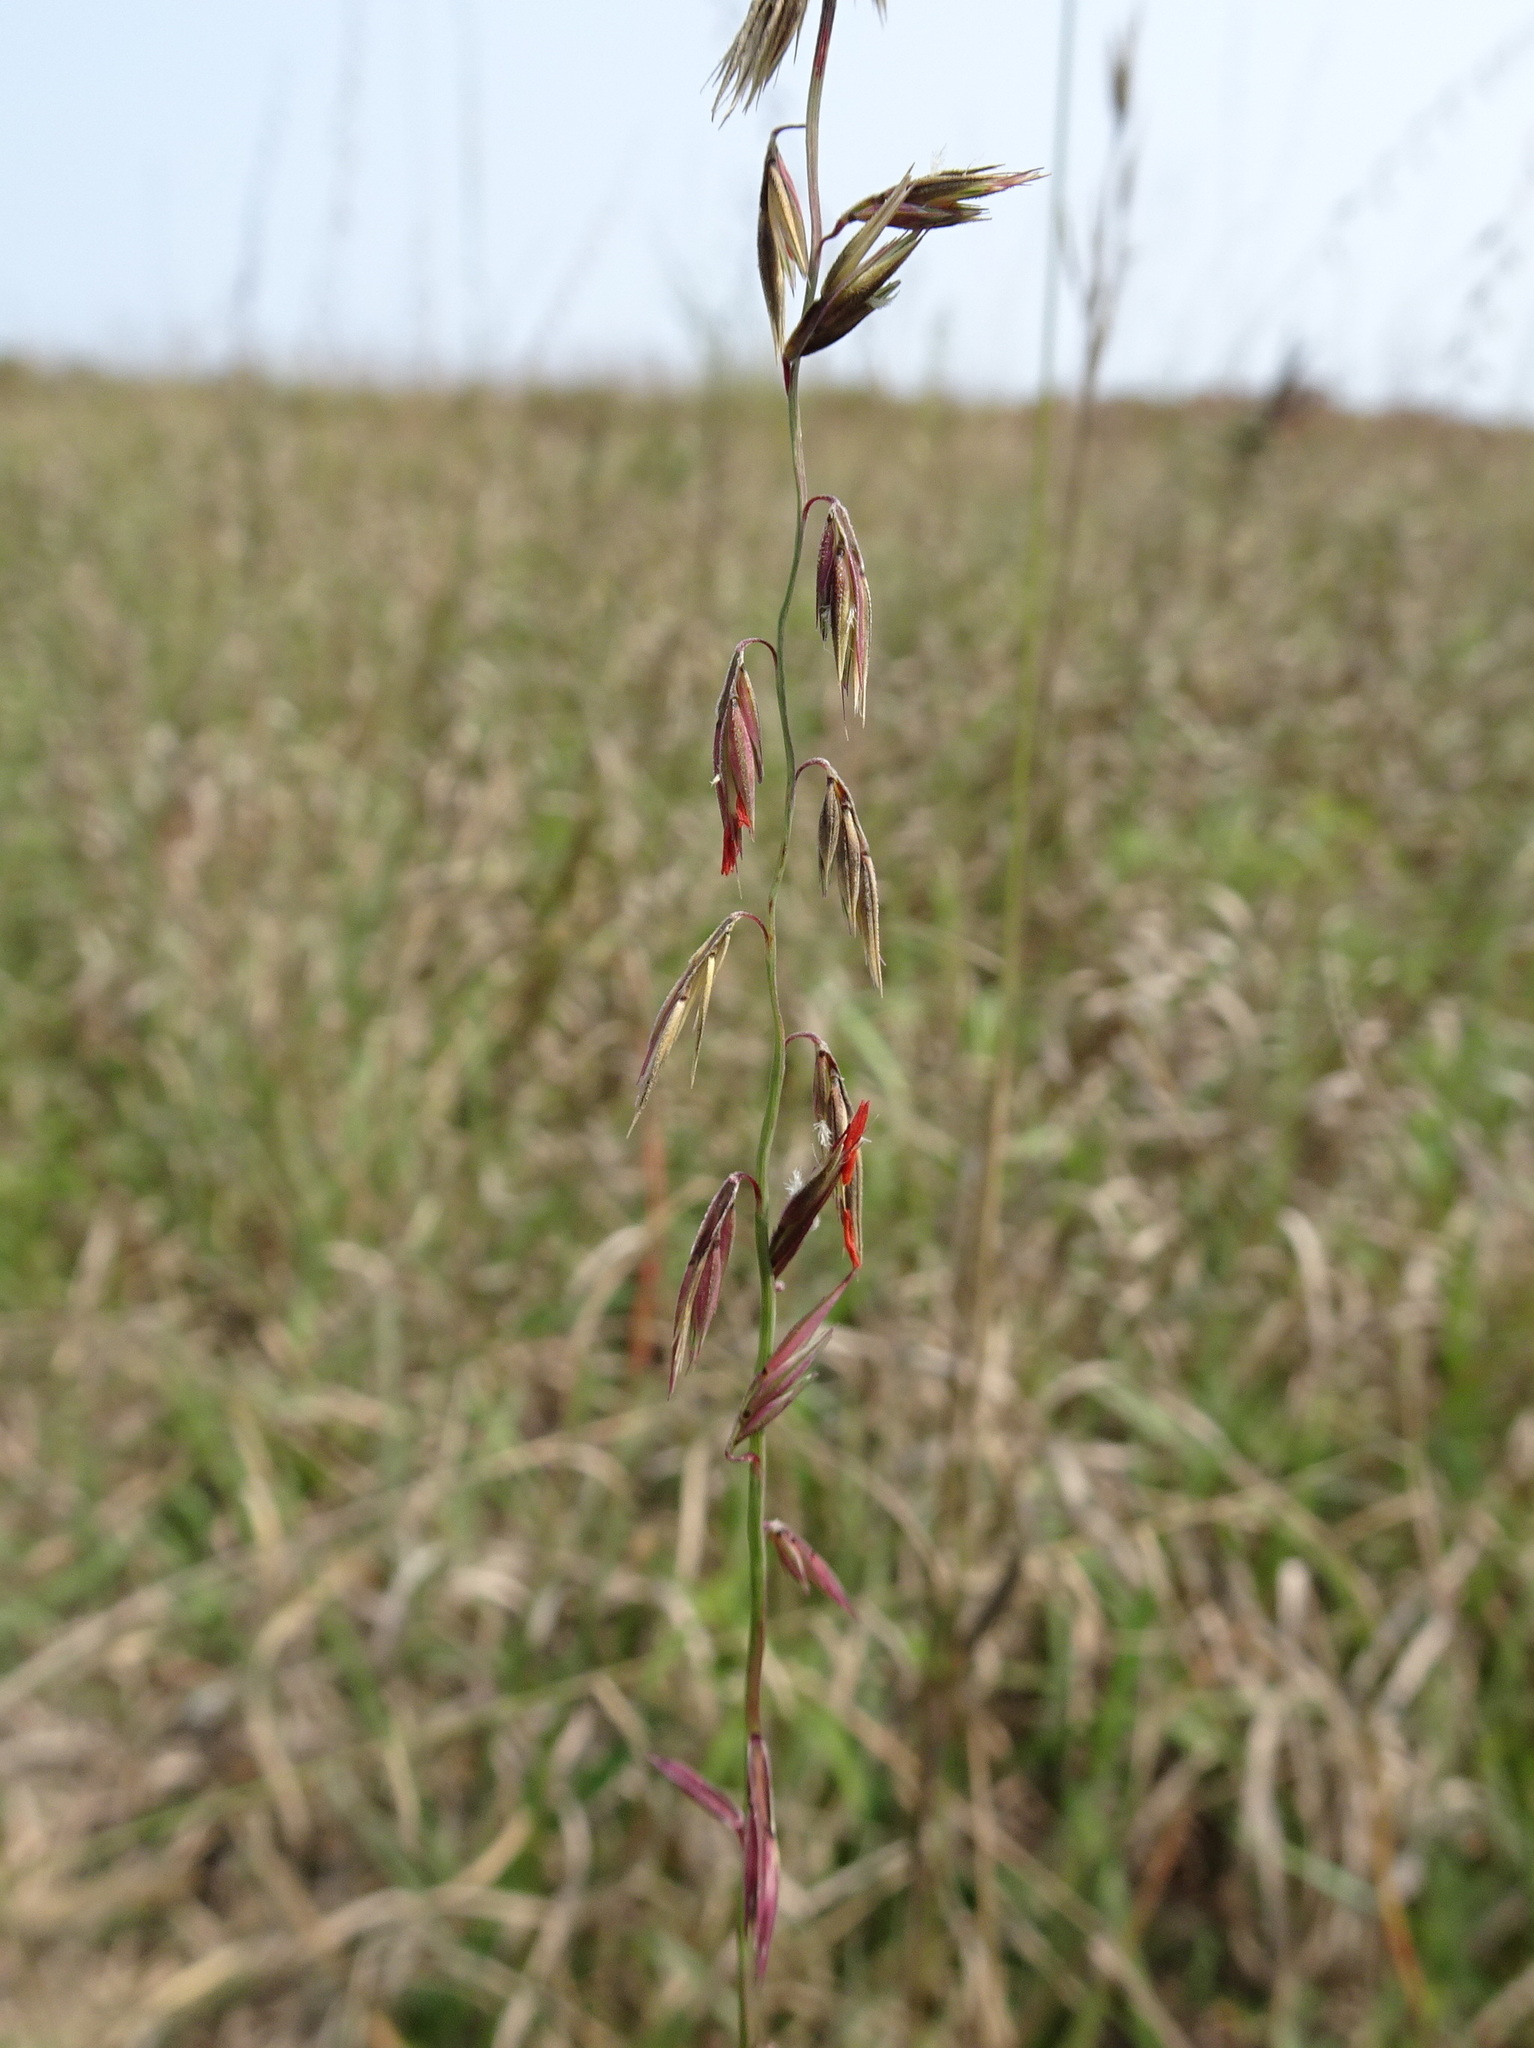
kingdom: Plantae
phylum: Tracheophyta
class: Liliopsida
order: Poales
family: Poaceae
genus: Bouteloua
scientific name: Bouteloua curtipendula
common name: Side-oats grama
